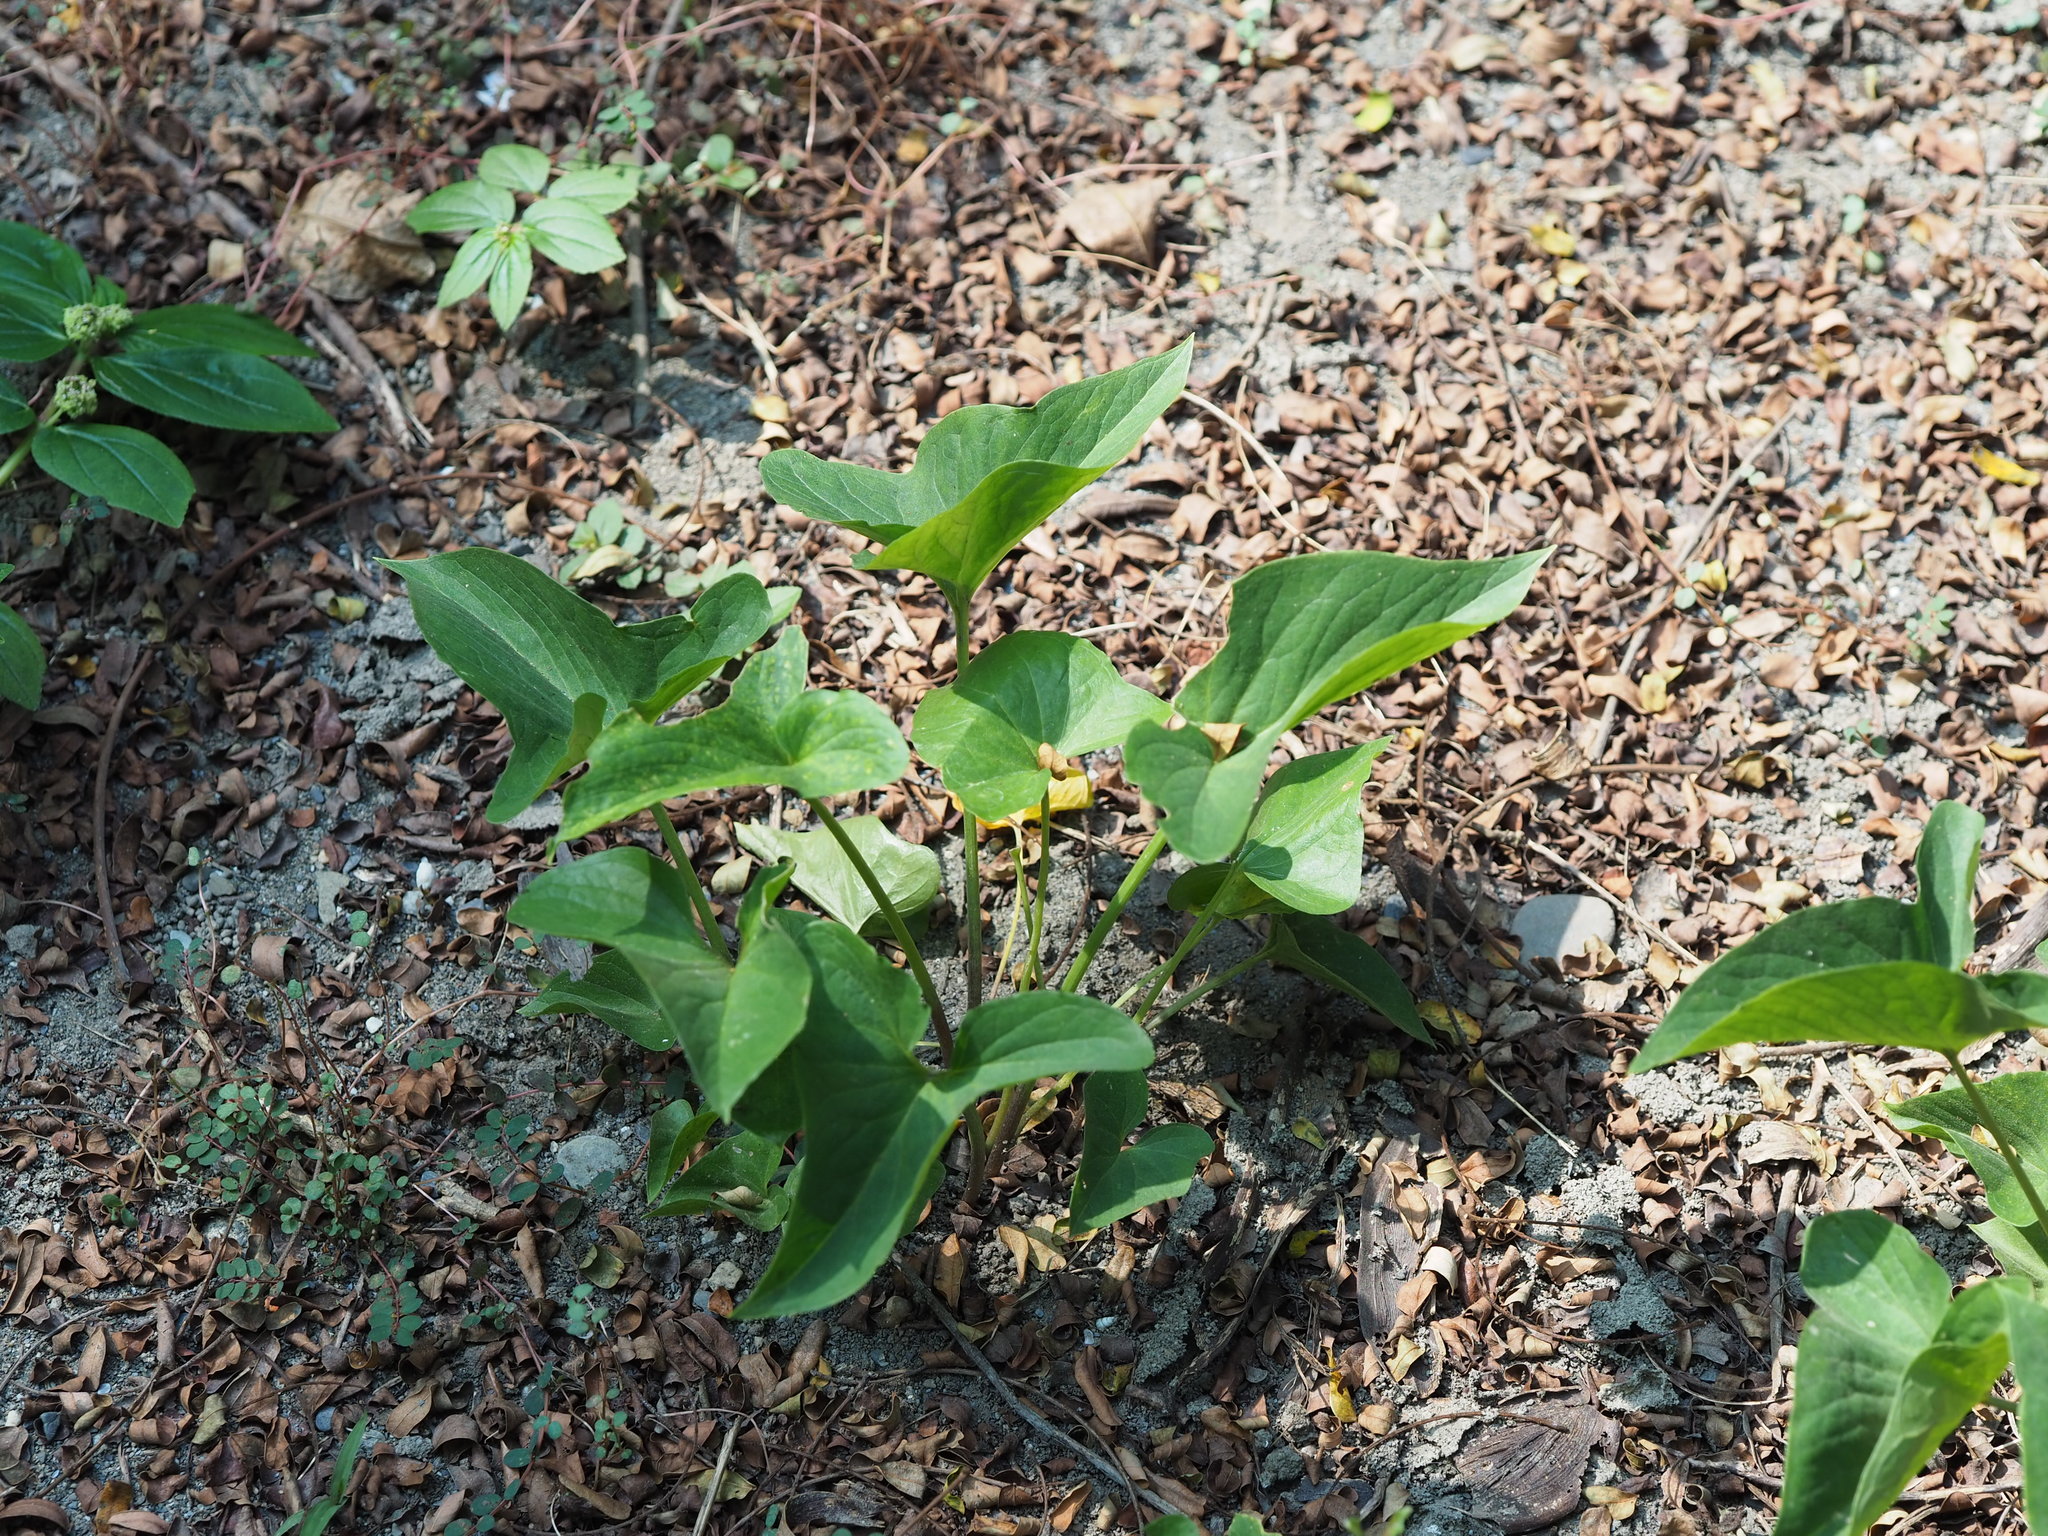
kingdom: Plantae
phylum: Tracheophyta
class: Liliopsida
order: Alismatales
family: Araceae
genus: Typhonium
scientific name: Typhonium blumei
